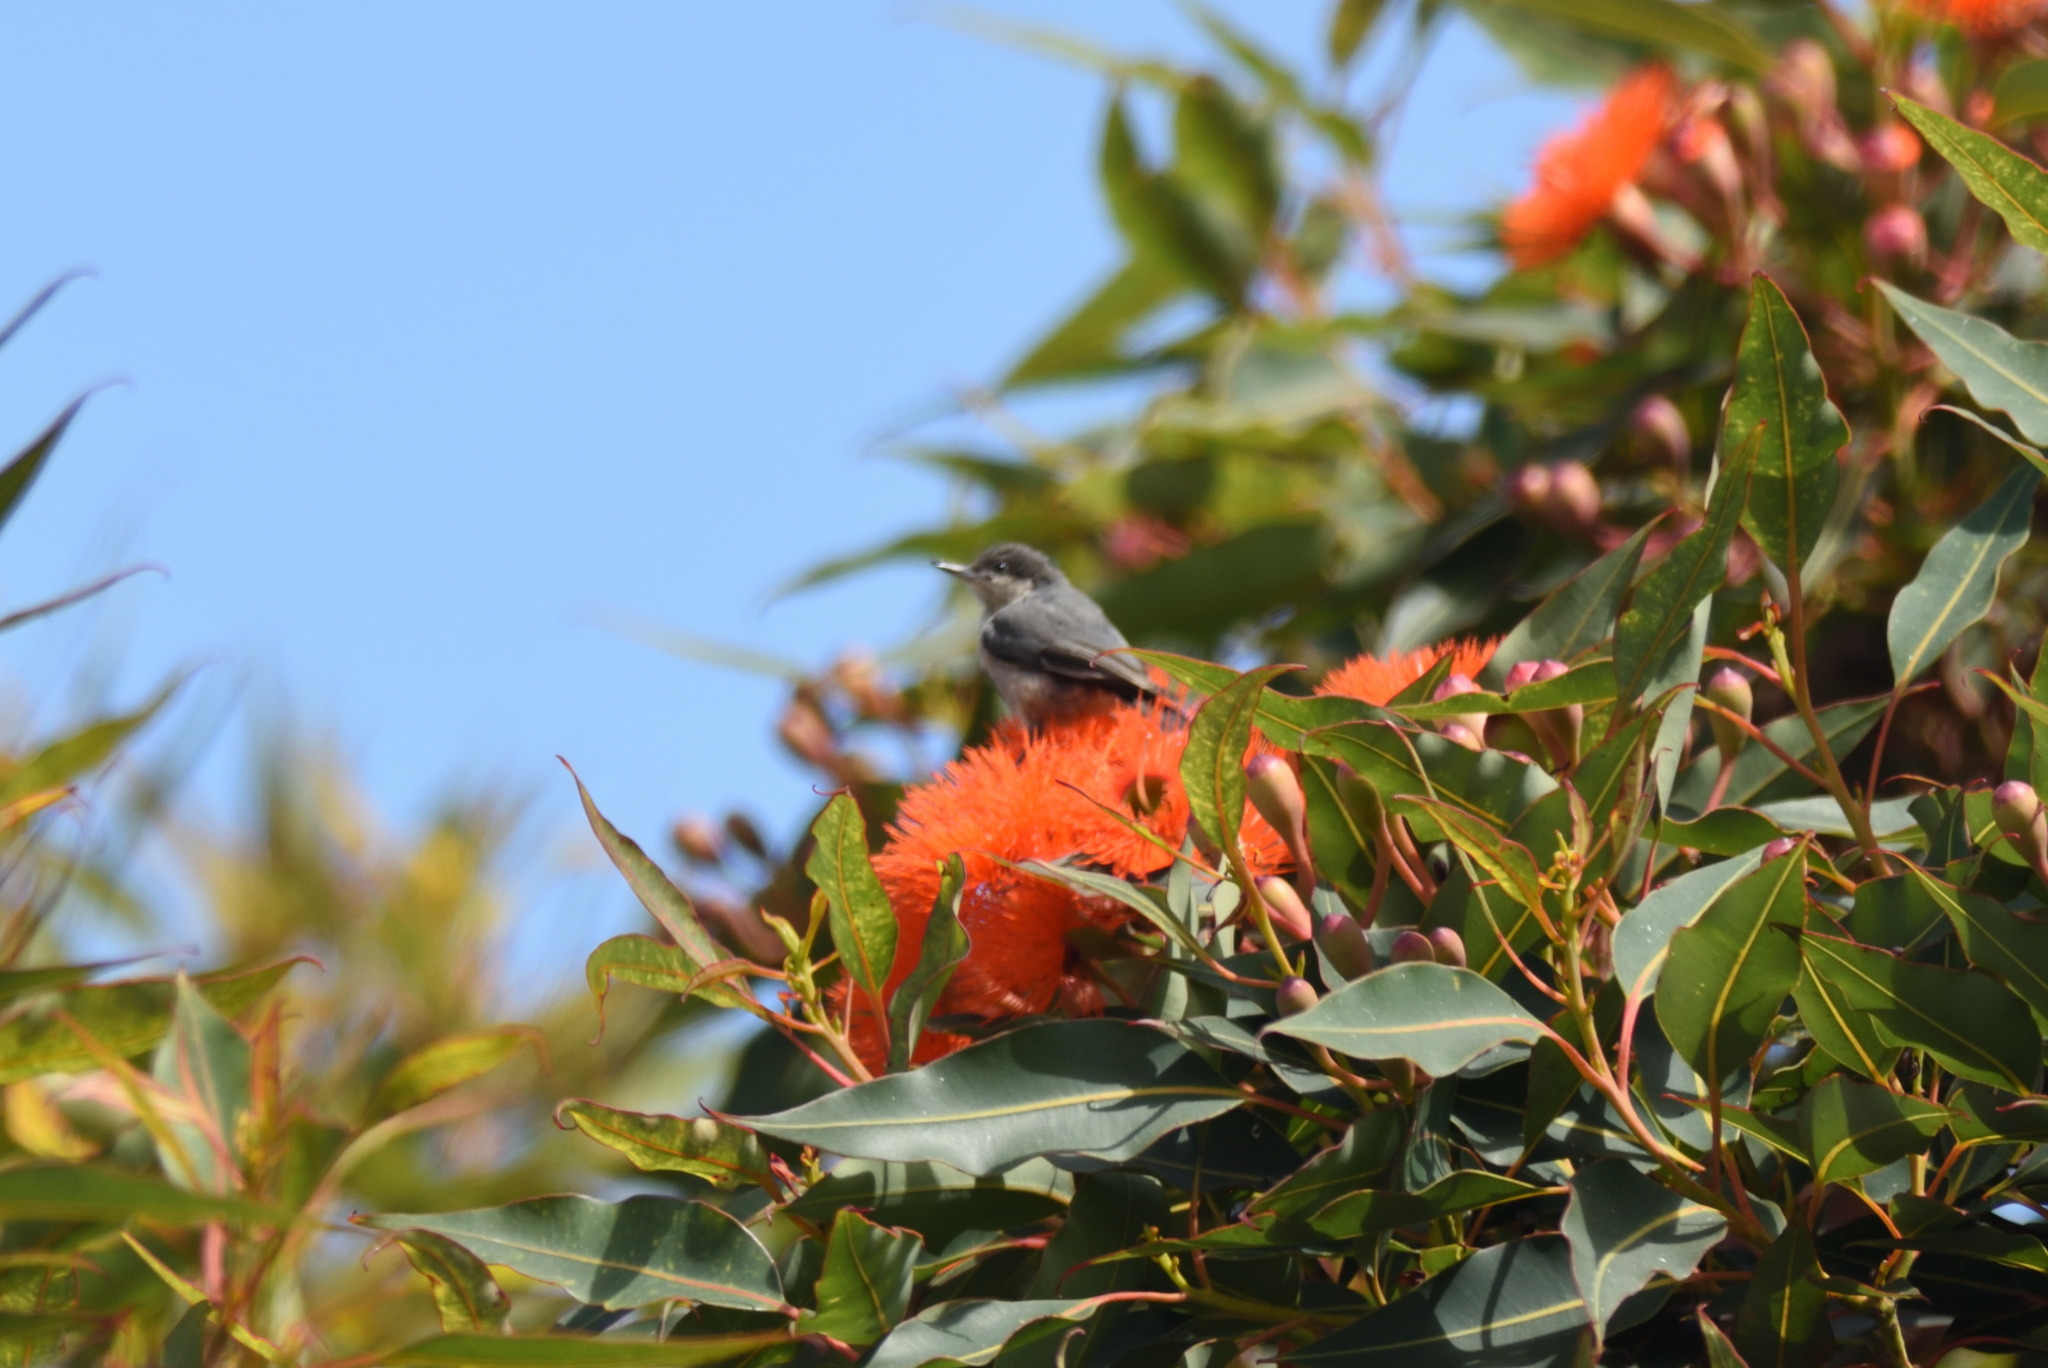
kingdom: Animalia
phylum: Chordata
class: Aves
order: Passeriformes
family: Sittidae
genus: Sitta
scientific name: Sitta pygmaea
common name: Pygmy nuthatch
